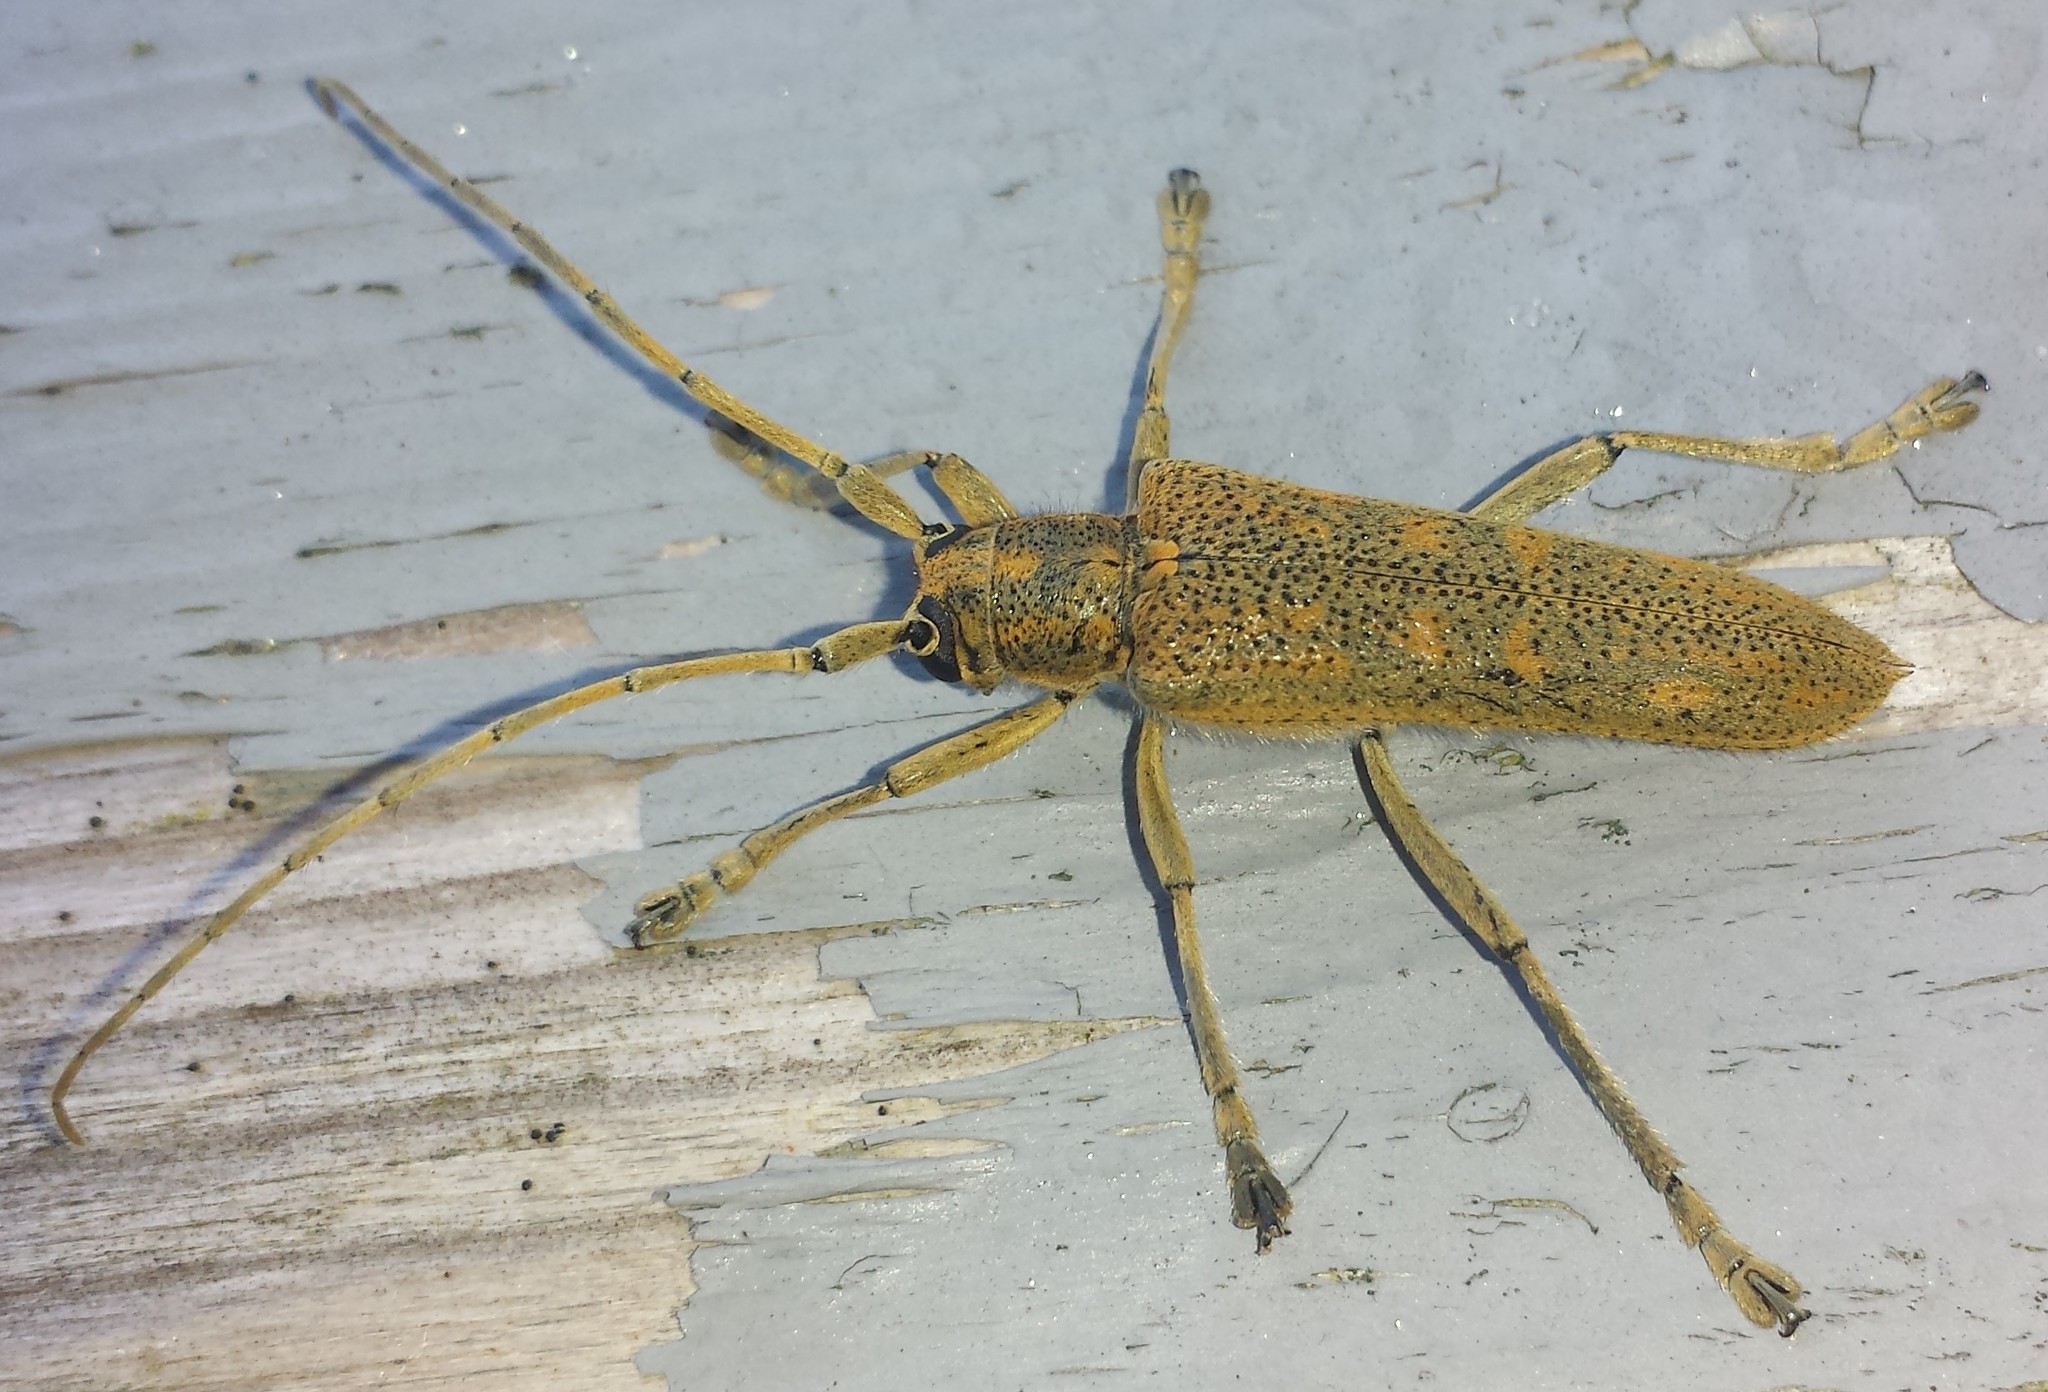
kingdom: Animalia
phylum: Arthropoda
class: Insecta
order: Coleoptera
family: Cerambycidae
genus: Saperda
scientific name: Saperda calcarata
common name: Poplar borer
